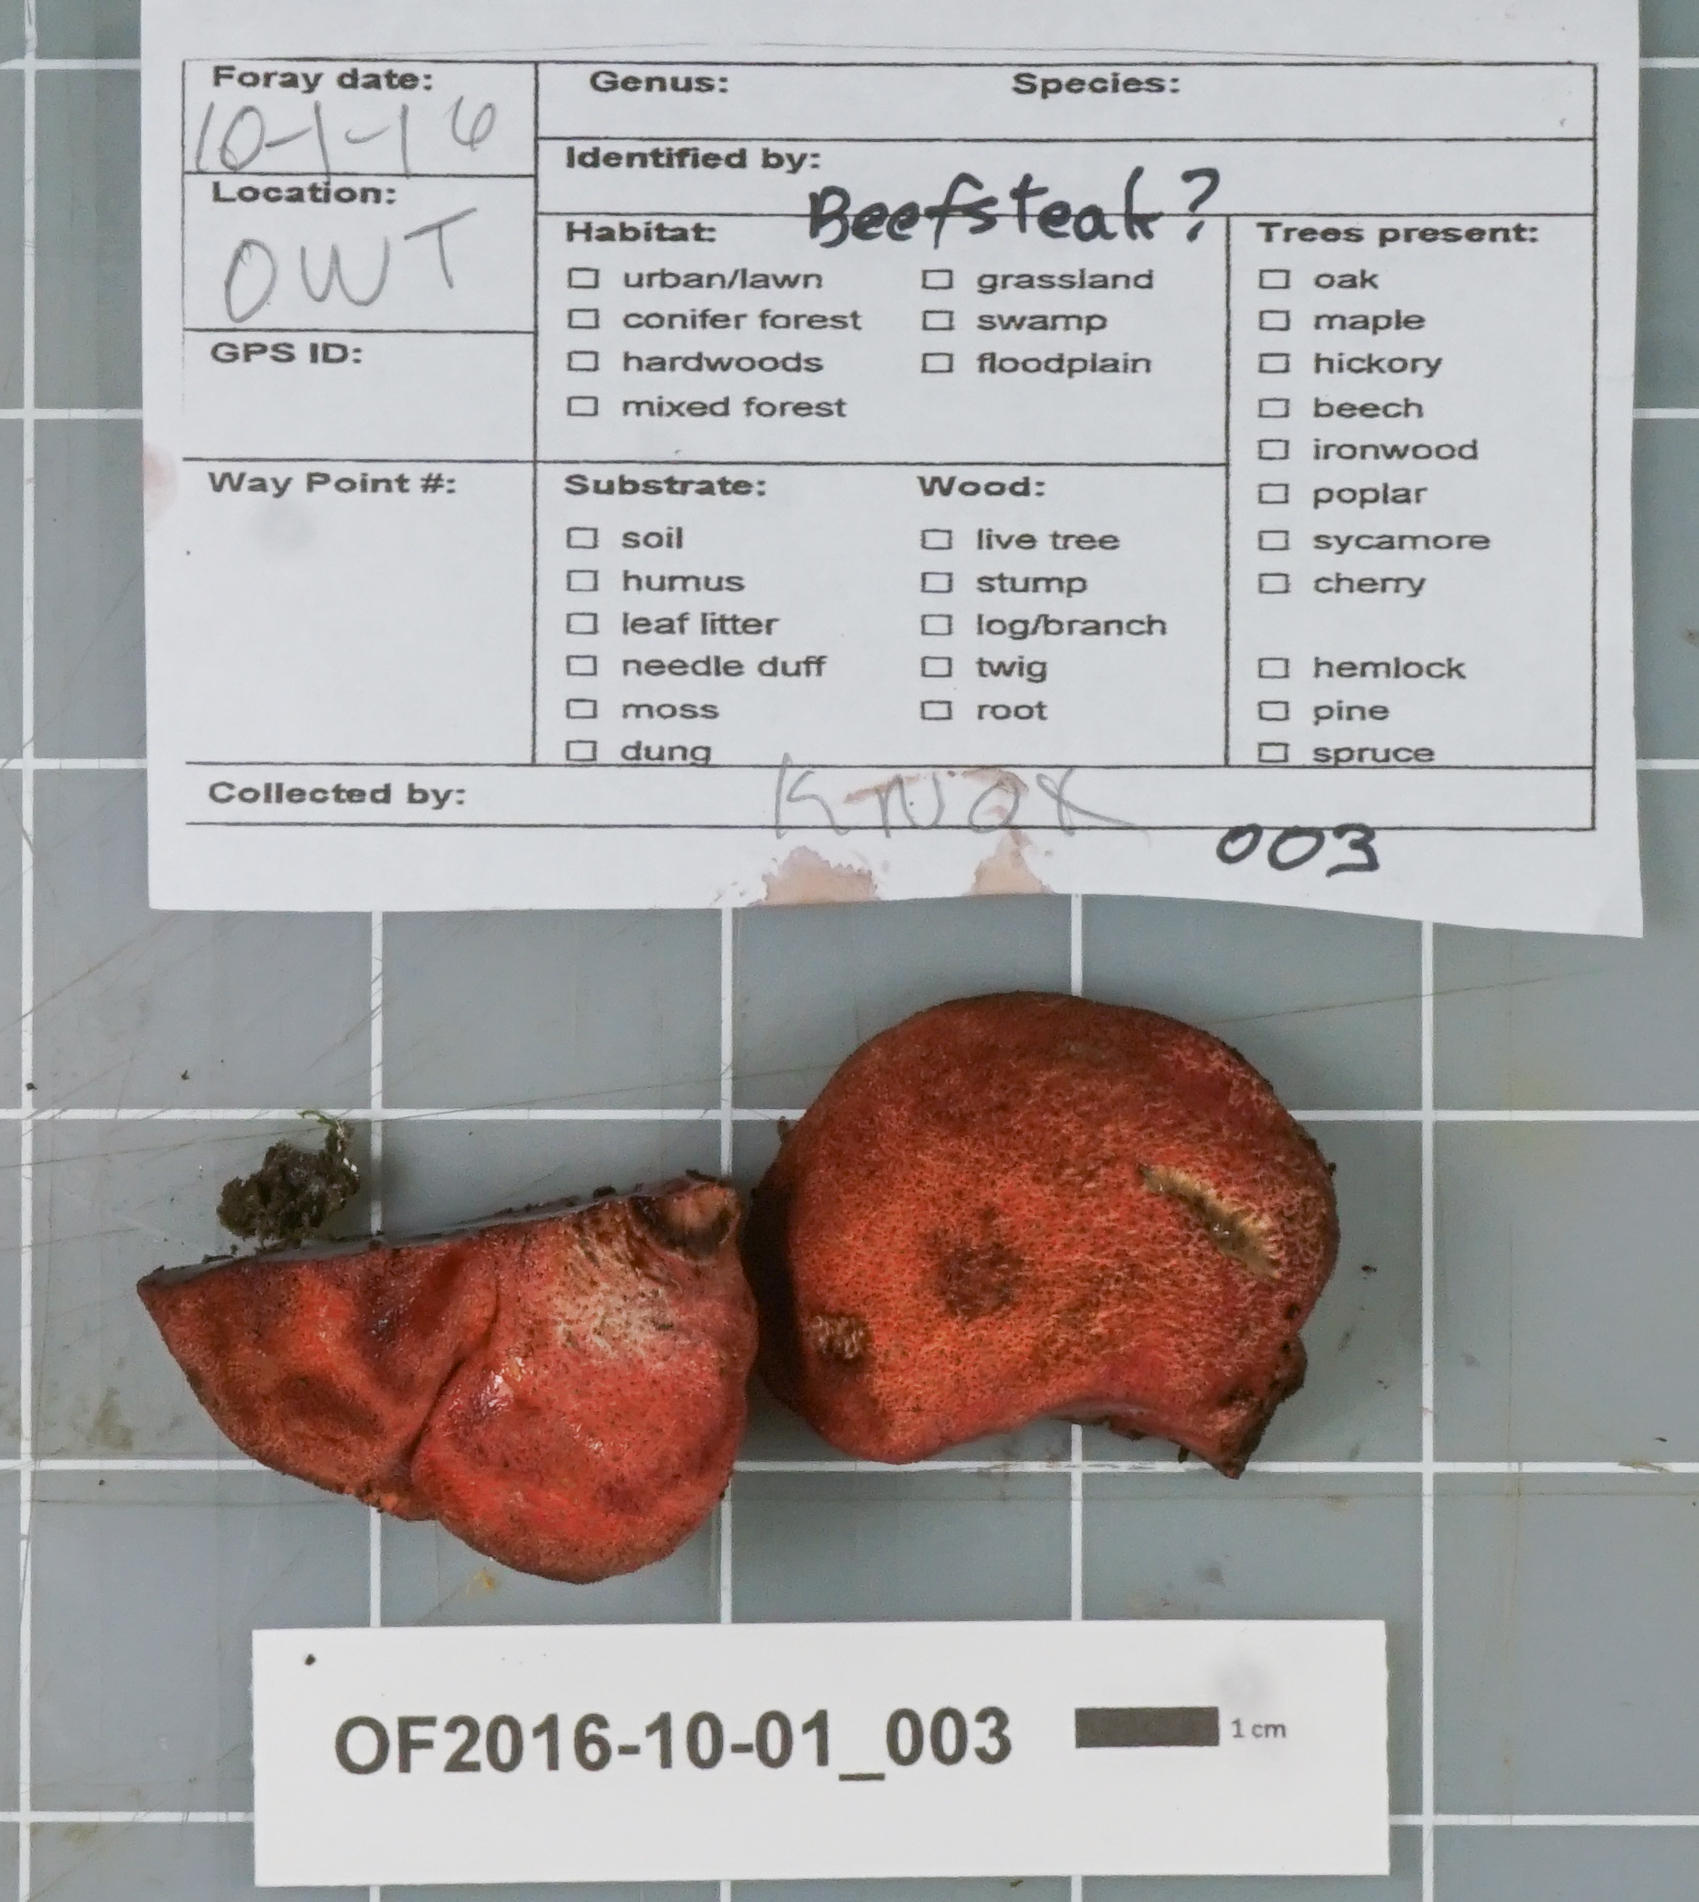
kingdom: Fungi
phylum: Basidiomycota
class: Agaricomycetes
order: Agaricales
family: Fistulinaceae
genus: Fistulina
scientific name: Fistulina hepatica
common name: Beef-steak fungus
